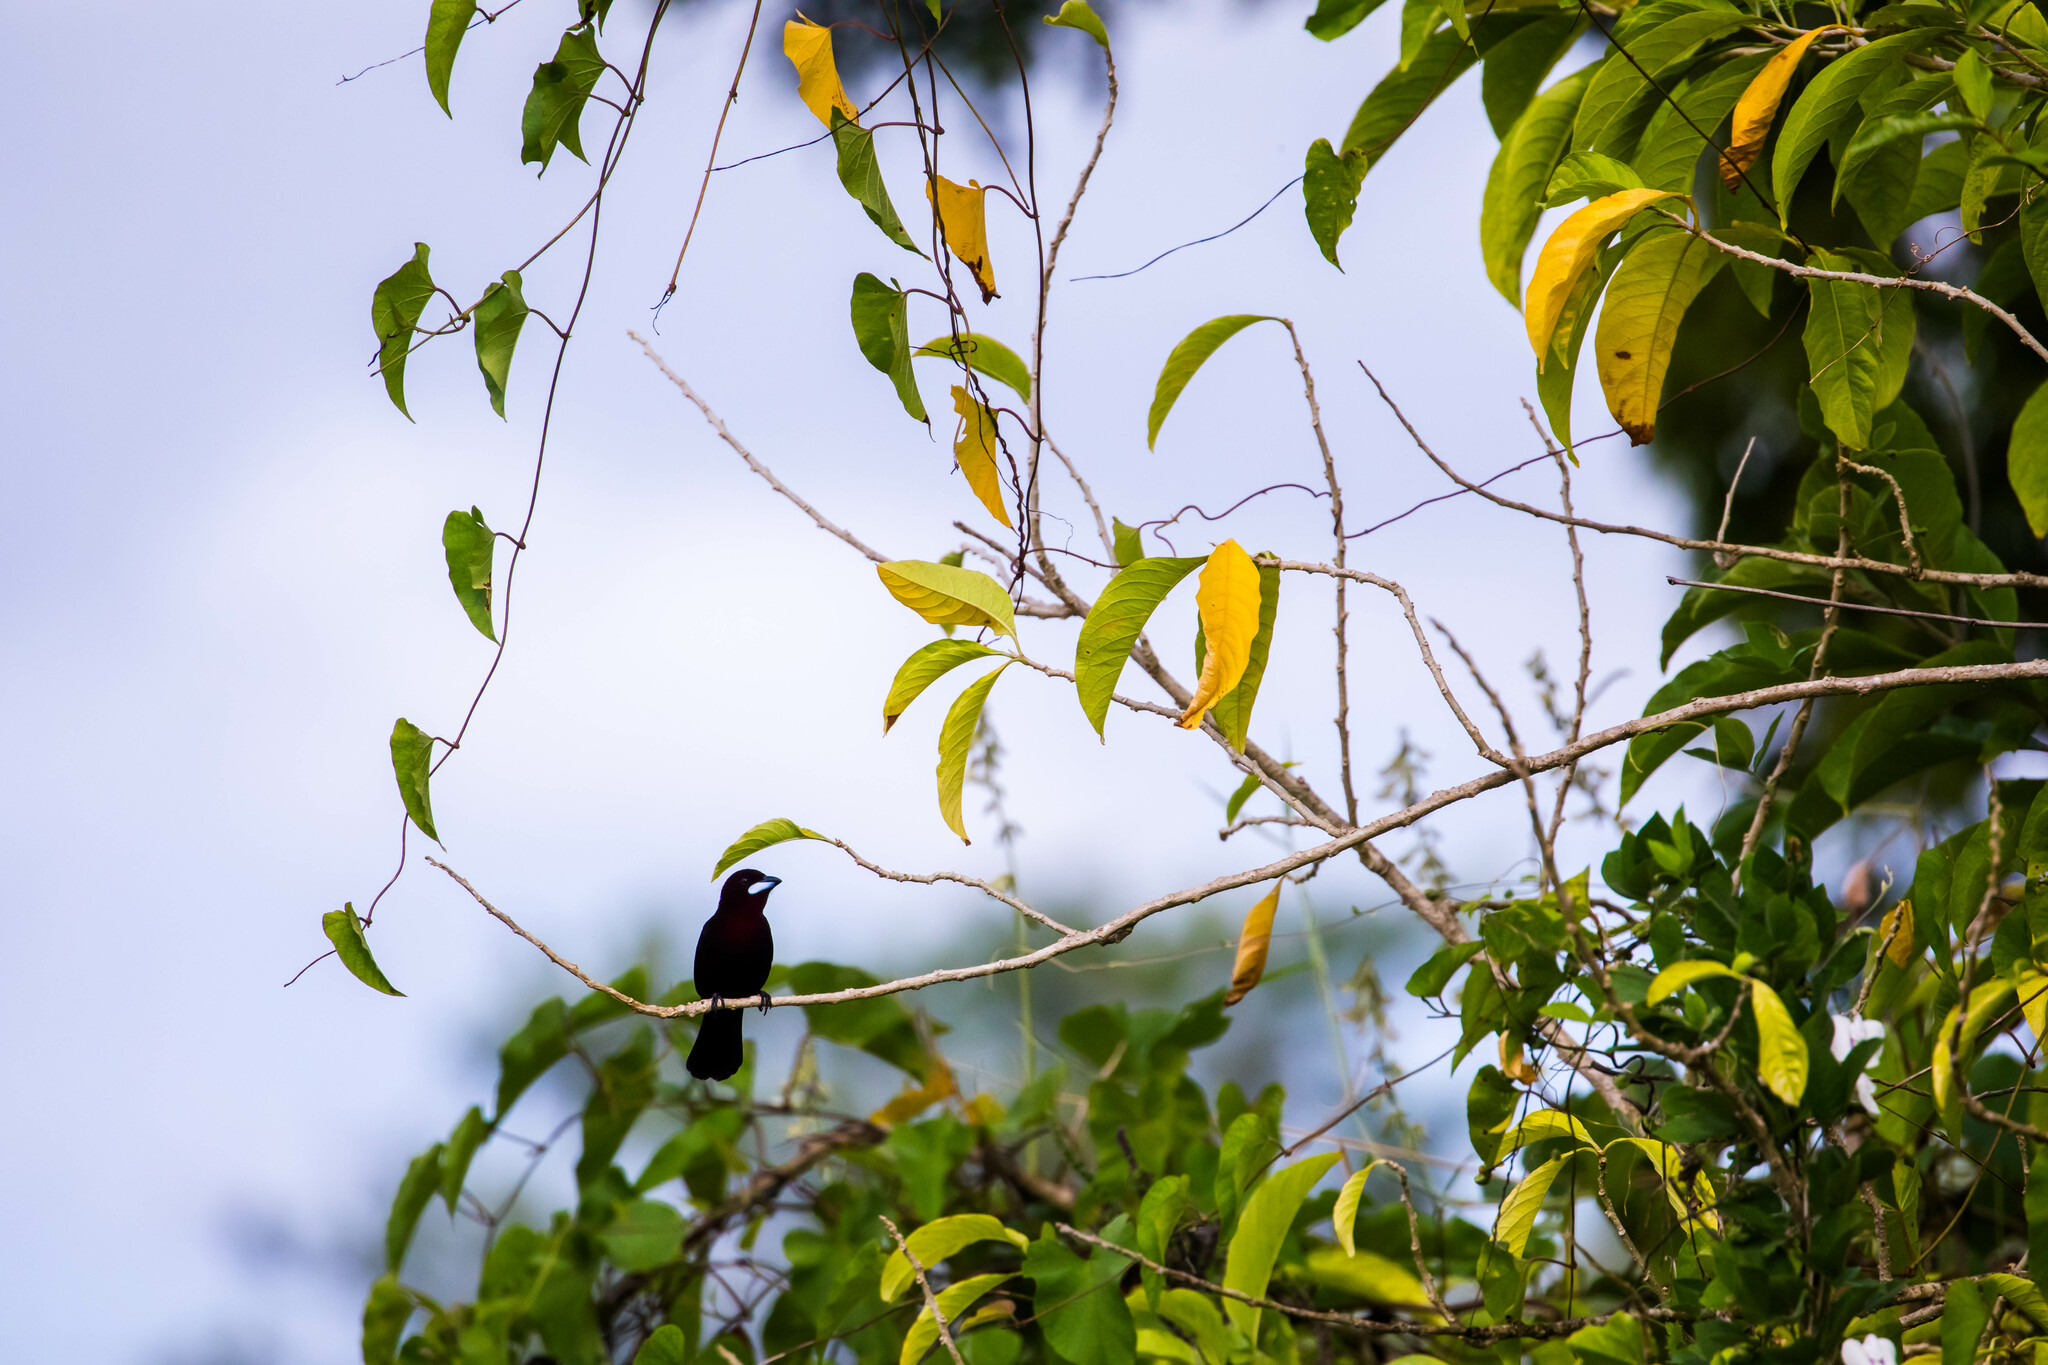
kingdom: Animalia
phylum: Chordata
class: Aves
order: Passeriformes
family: Thraupidae
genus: Ramphocelus
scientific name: Ramphocelus carbo
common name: Silver-beaked tanager
